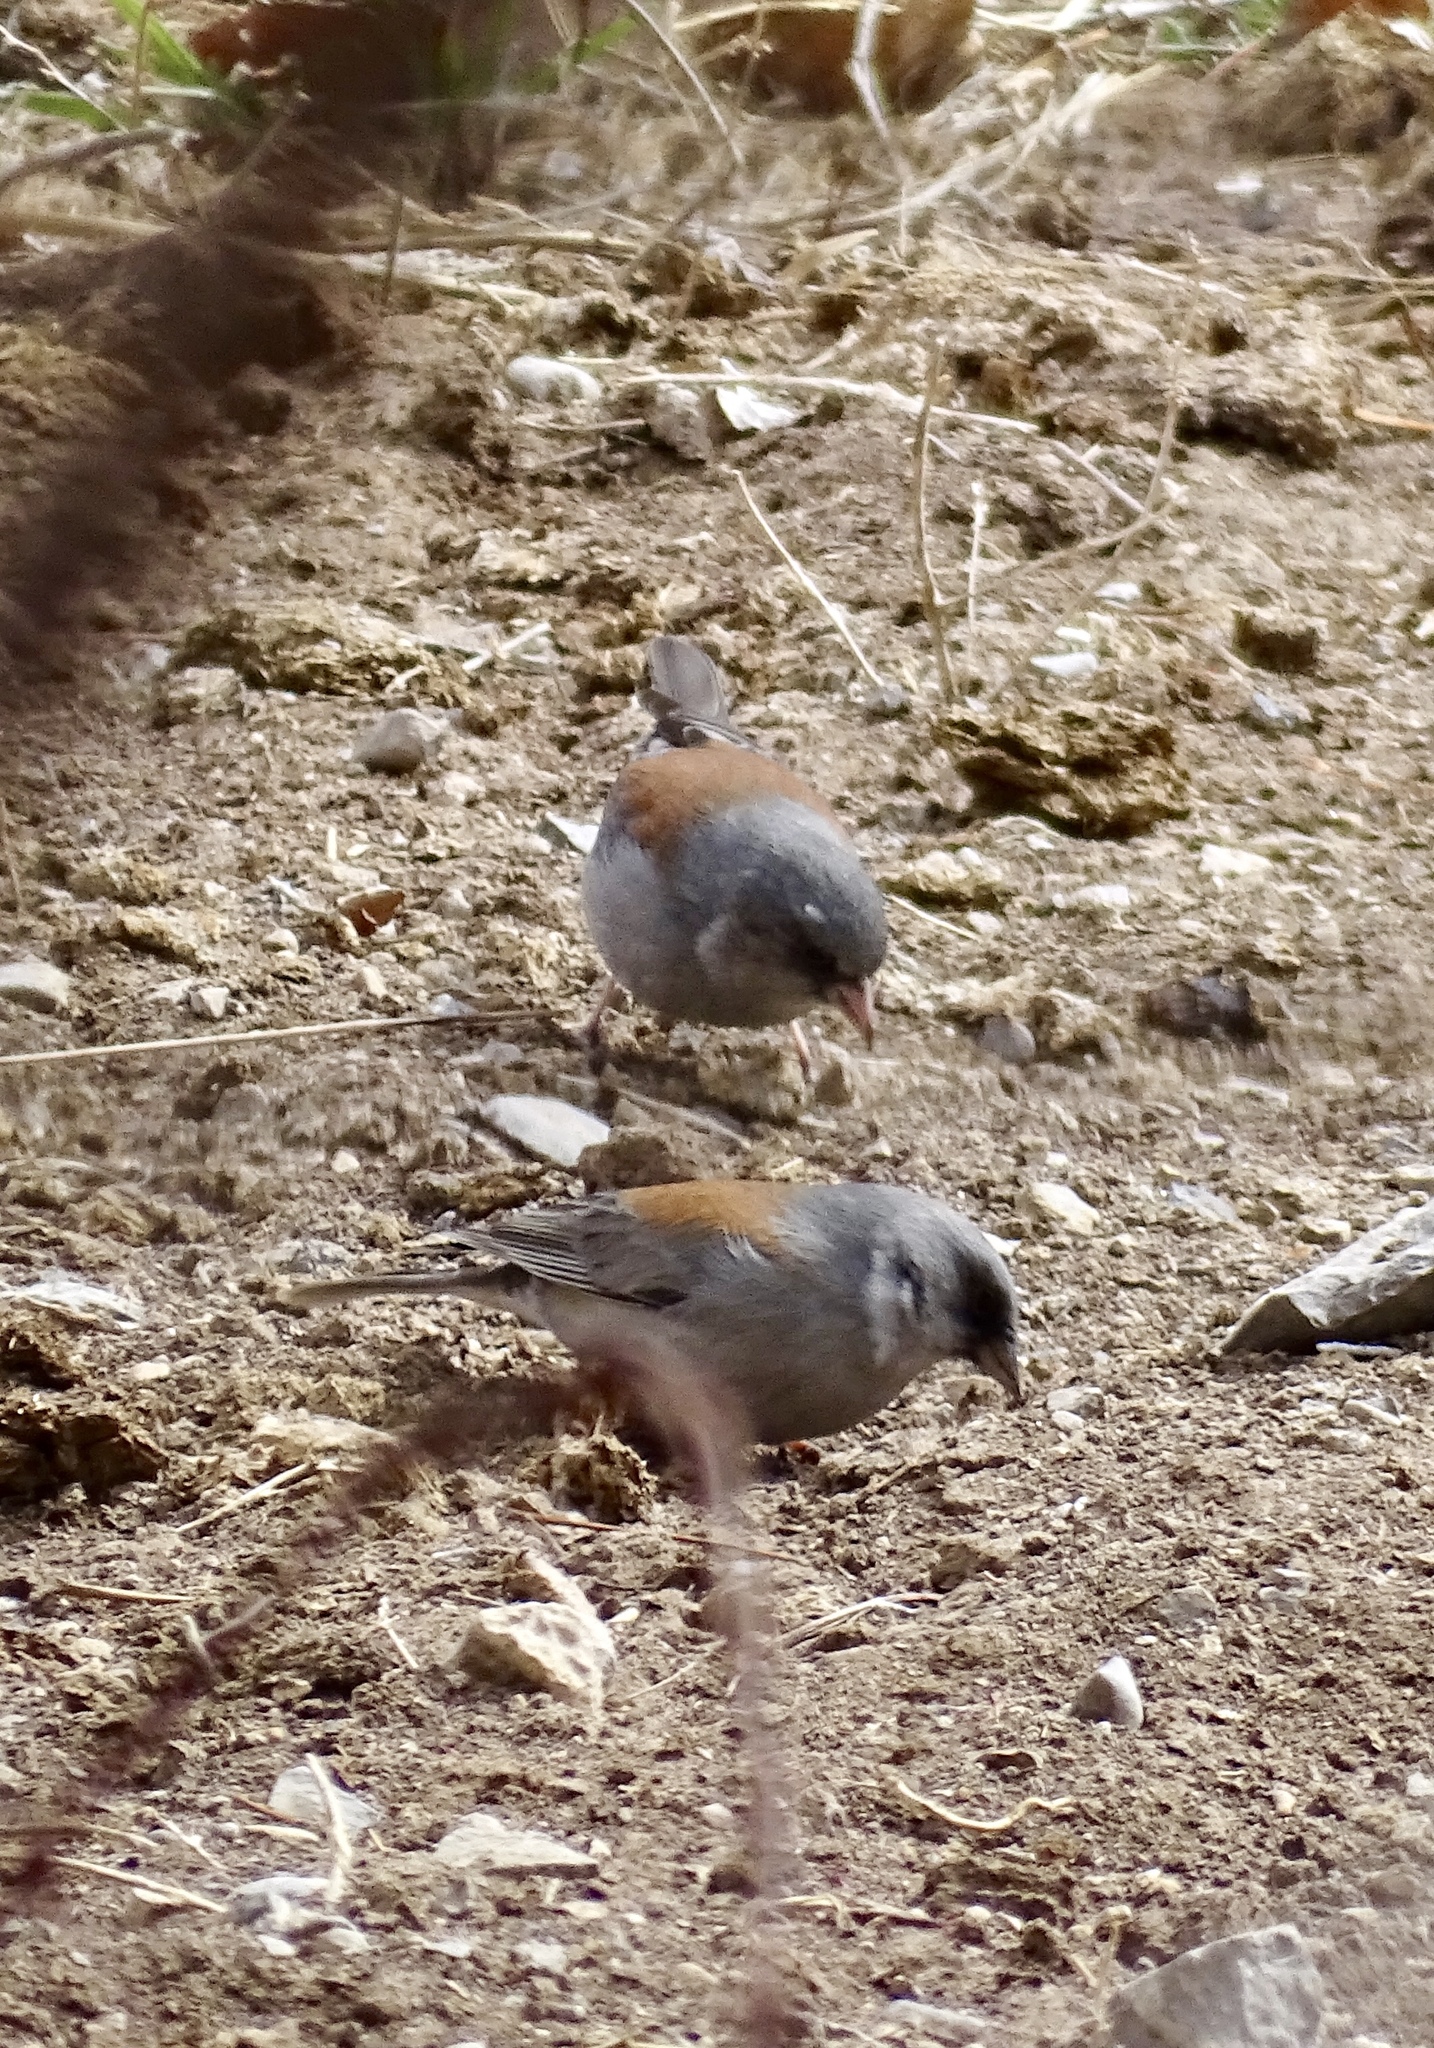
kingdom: Animalia
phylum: Chordata
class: Aves
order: Passeriformes
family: Passerellidae
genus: Junco
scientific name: Junco hyemalis
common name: Dark-eyed junco
